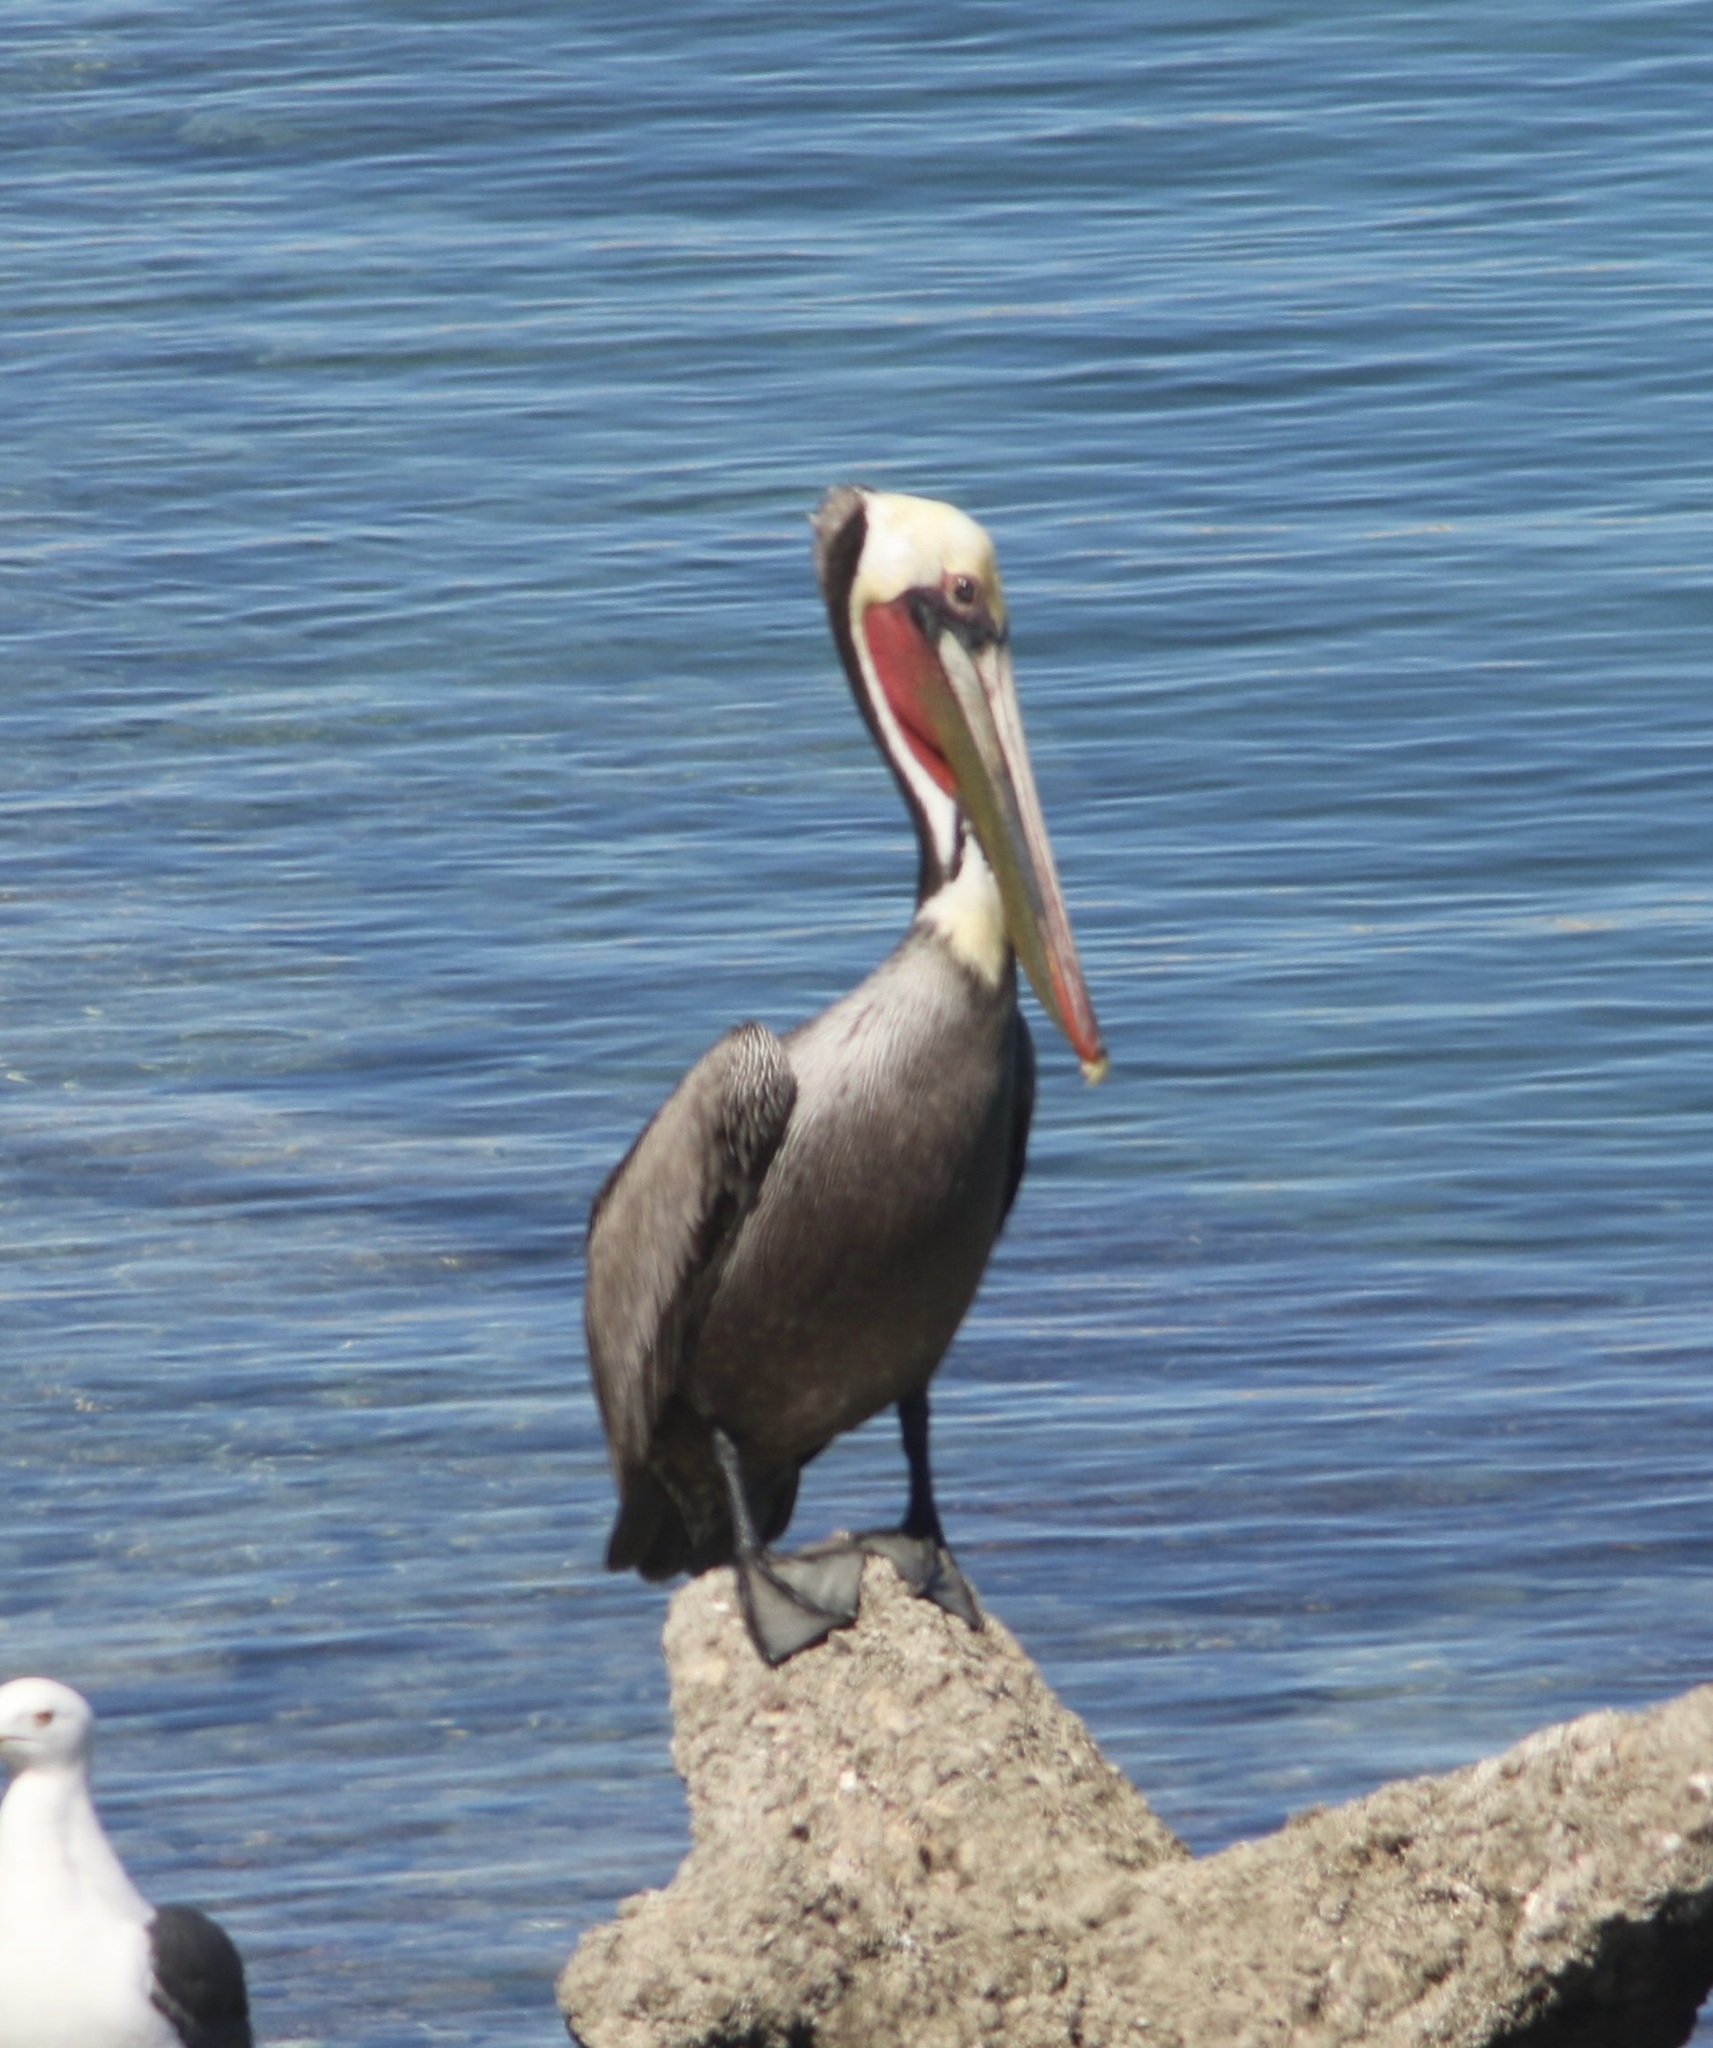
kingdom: Animalia
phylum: Chordata
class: Aves
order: Pelecaniformes
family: Pelecanidae
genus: Pelecanus
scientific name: Pelecanus occidentalis
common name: Brown pelican
